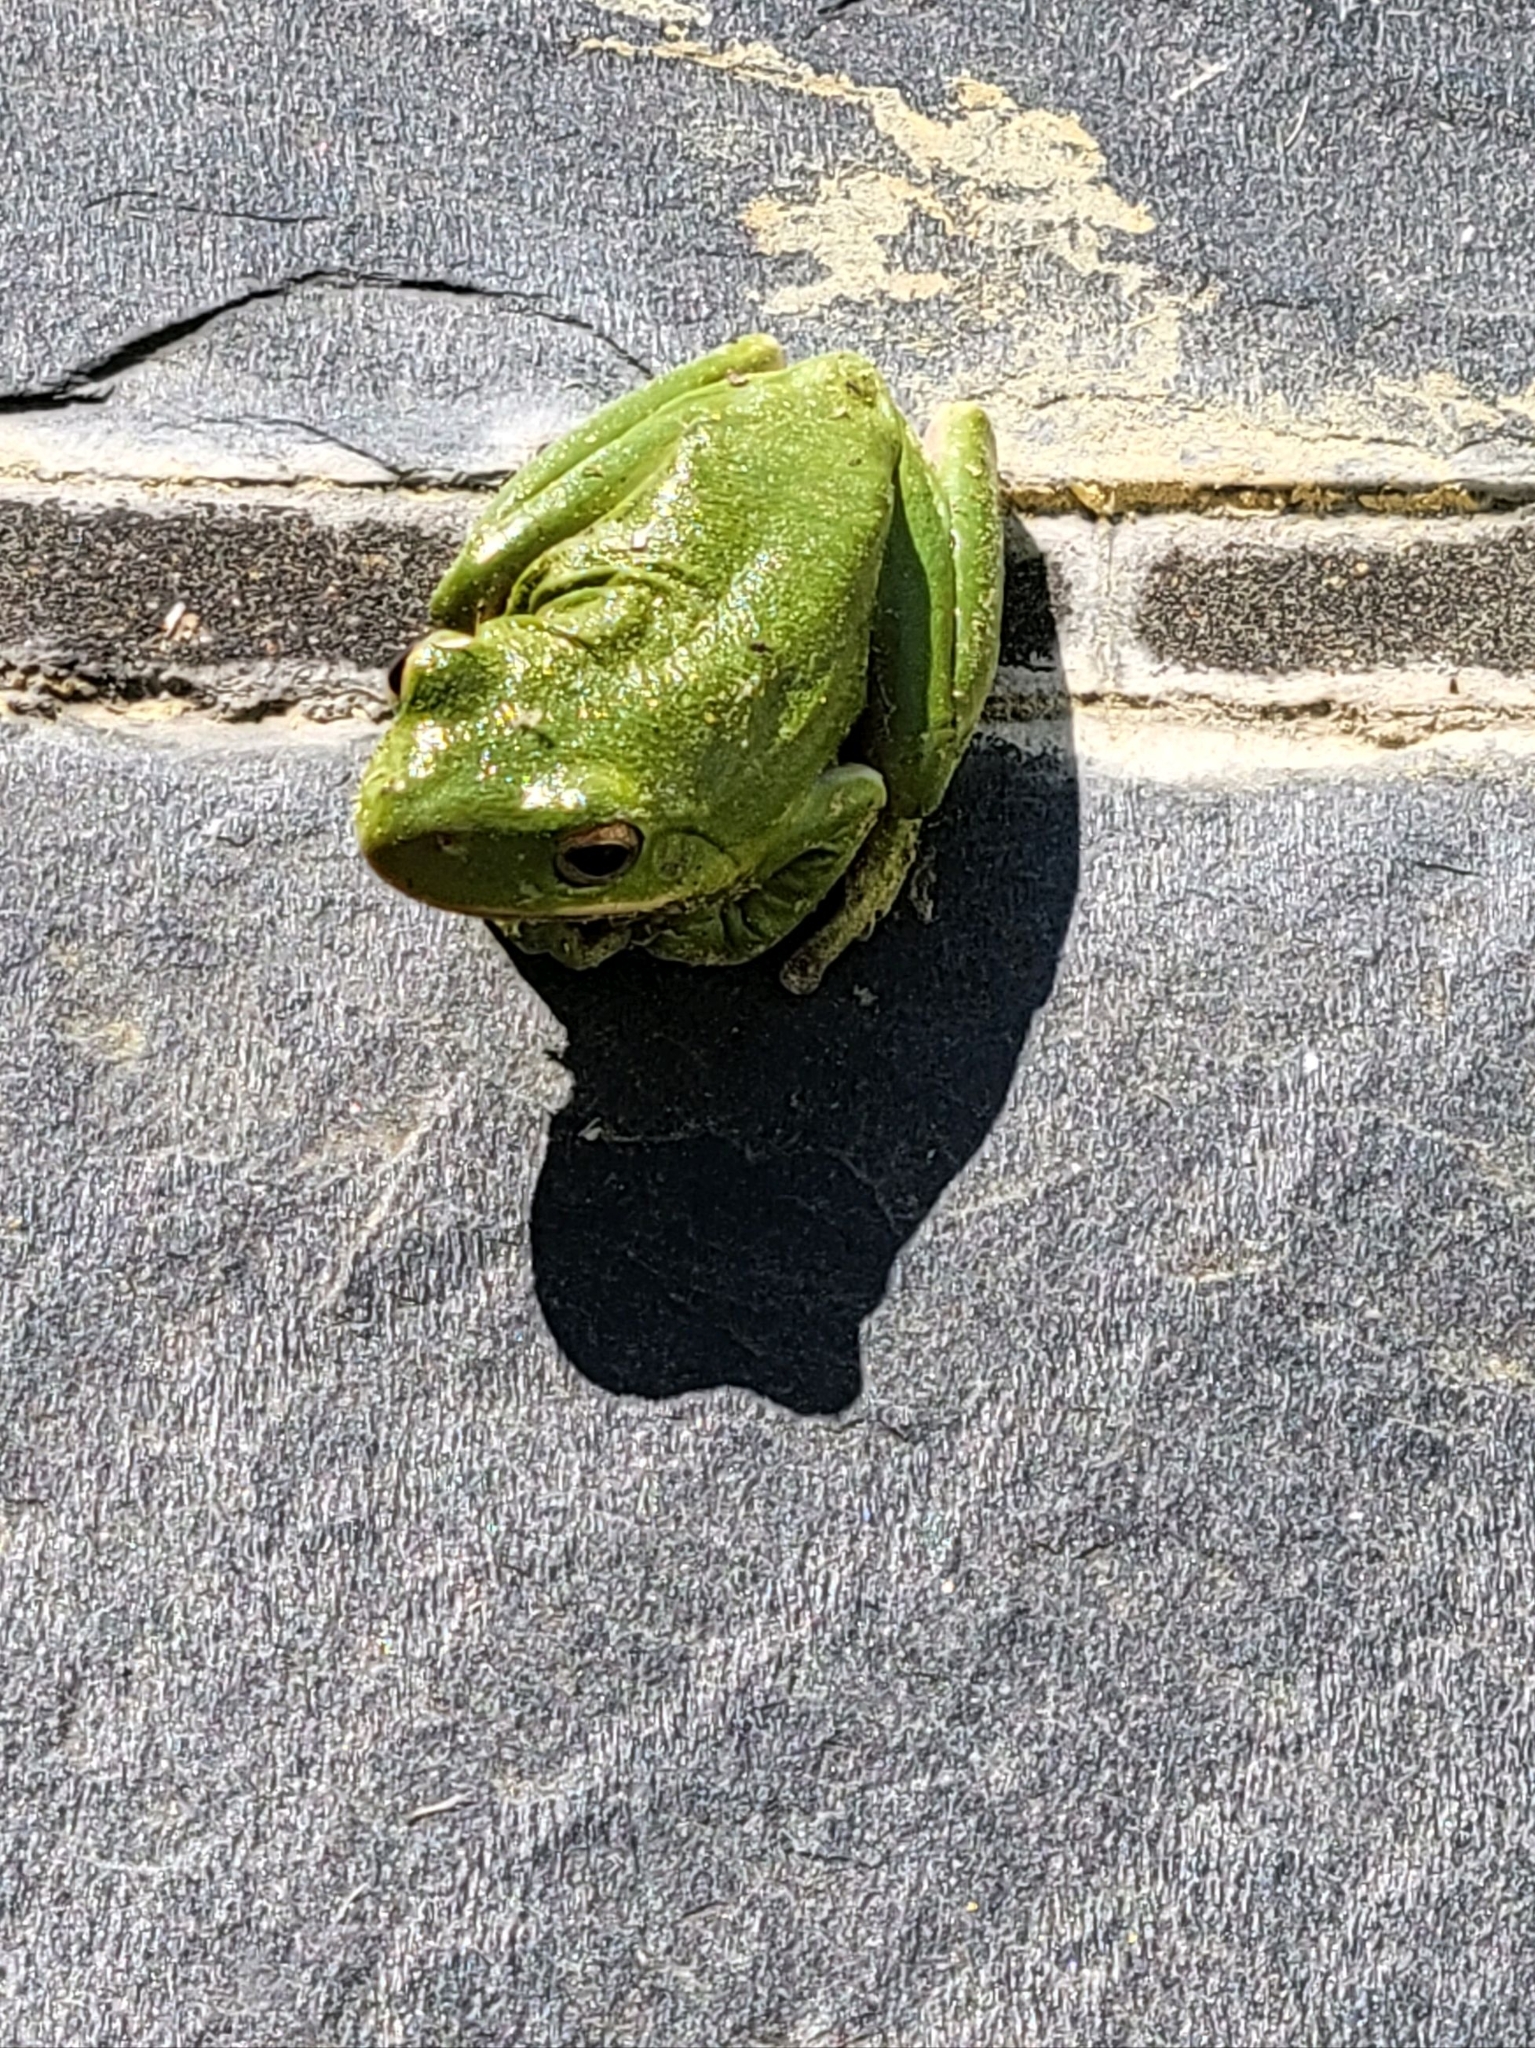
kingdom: Animalia
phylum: Chordata
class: Amphibia
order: Anura
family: Hylidae
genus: Dryophytes
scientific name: Dryophytes cinereus
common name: Green treefrog
